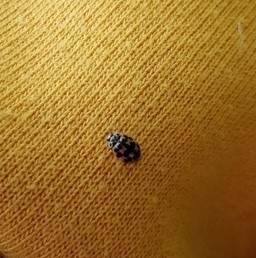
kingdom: Animalia
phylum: Arthropoda
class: Insecta
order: Coleoptera
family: Coccinellidae
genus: Oenopia
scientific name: Oenopia conglobata
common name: Ladybird beetle
